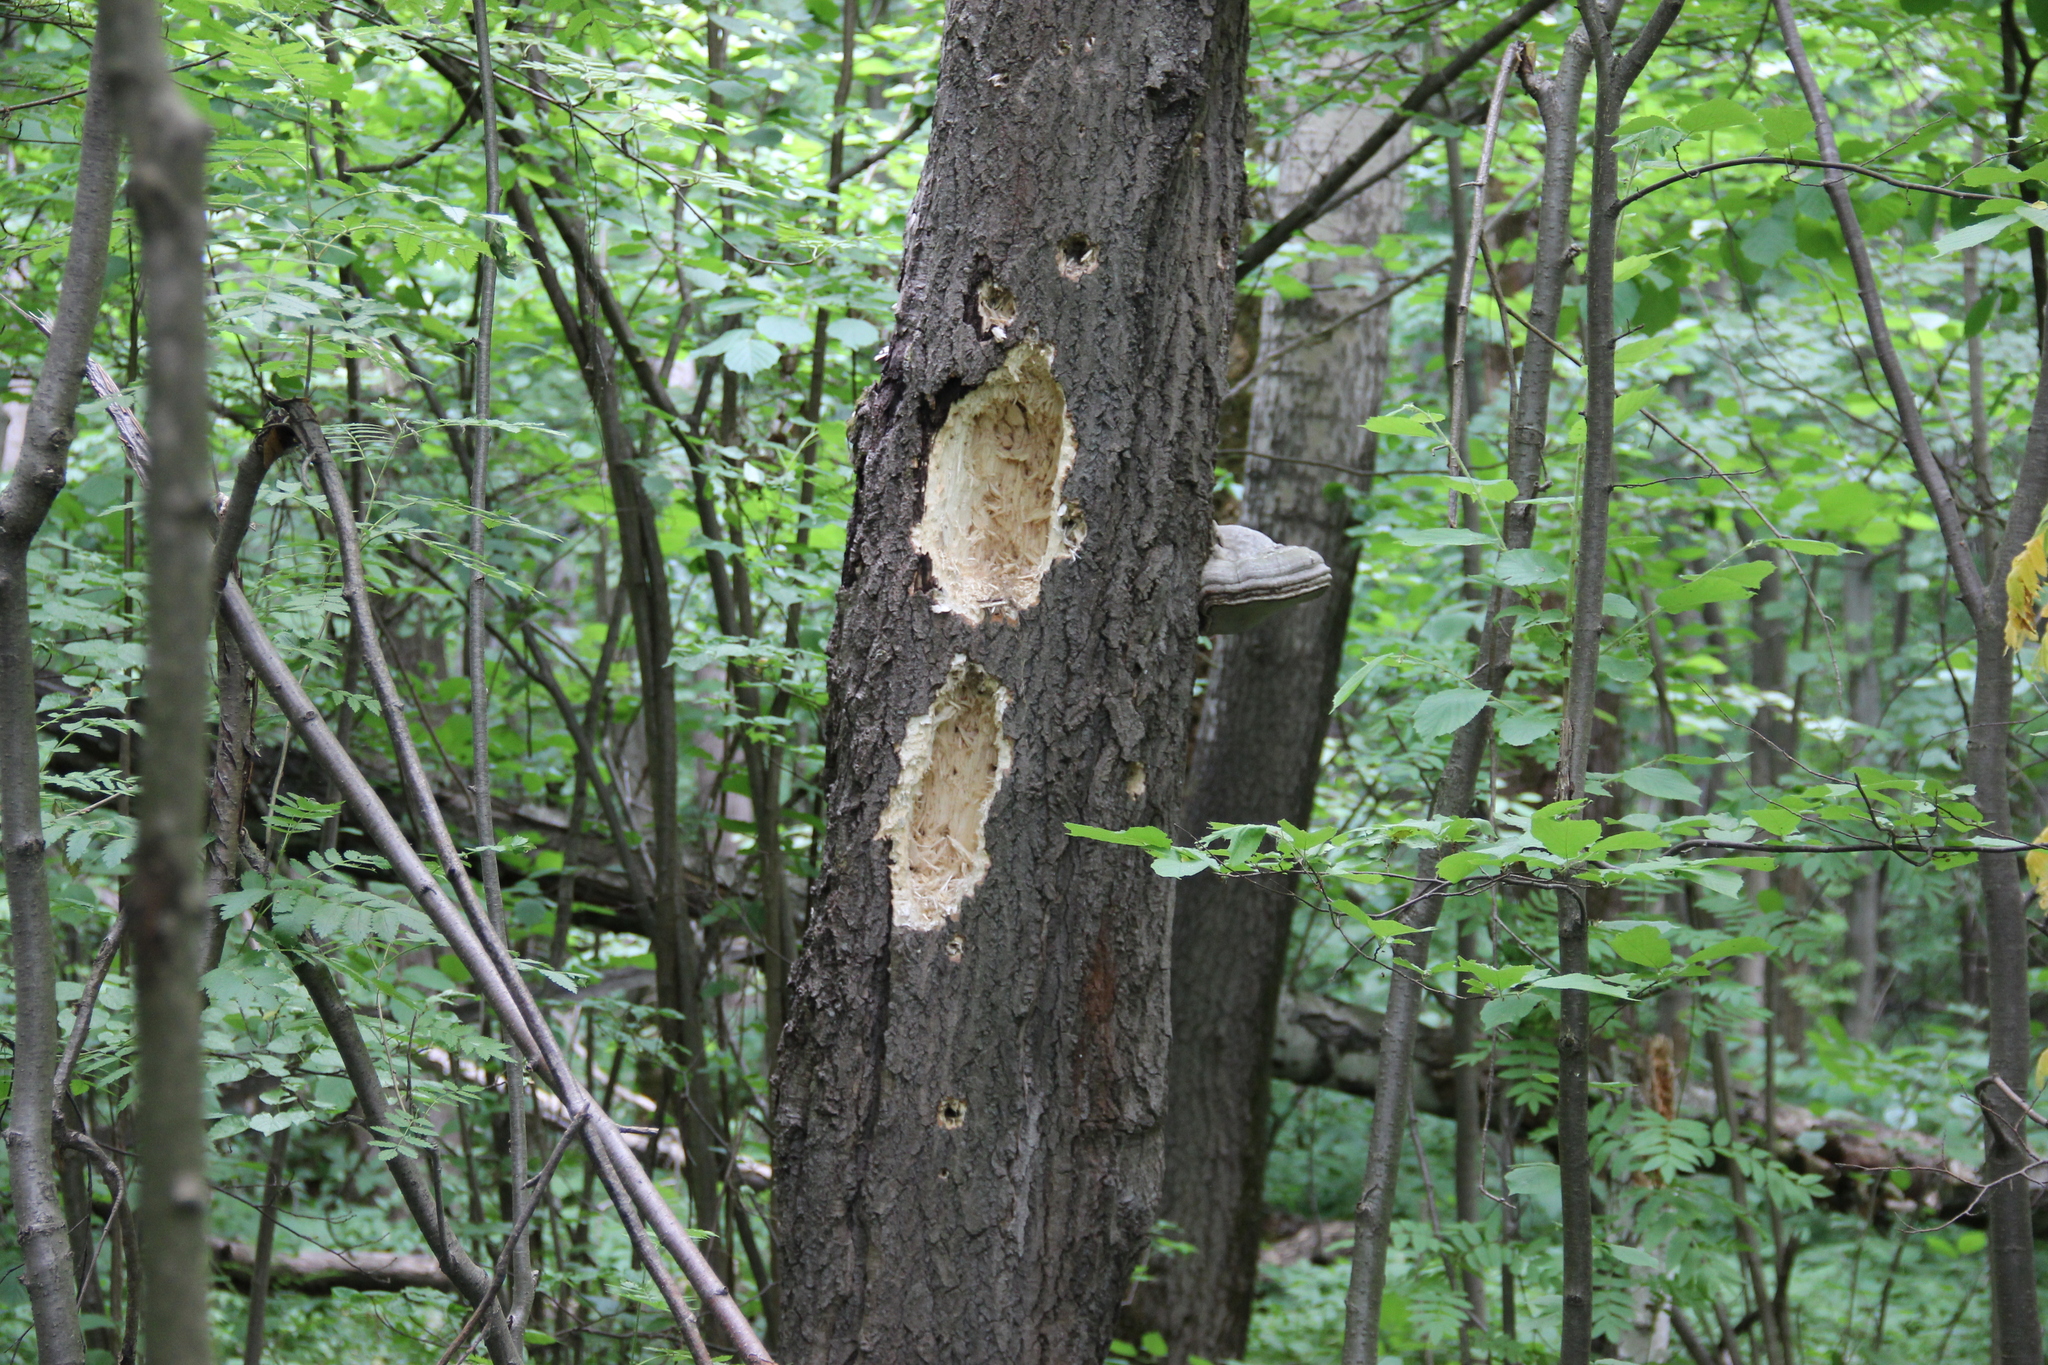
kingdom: Animalia
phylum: Chordata
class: Aves
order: Piciformes
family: Picidae
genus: Dryocopus
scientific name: Dryocopus martius
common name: Black woodpecker
